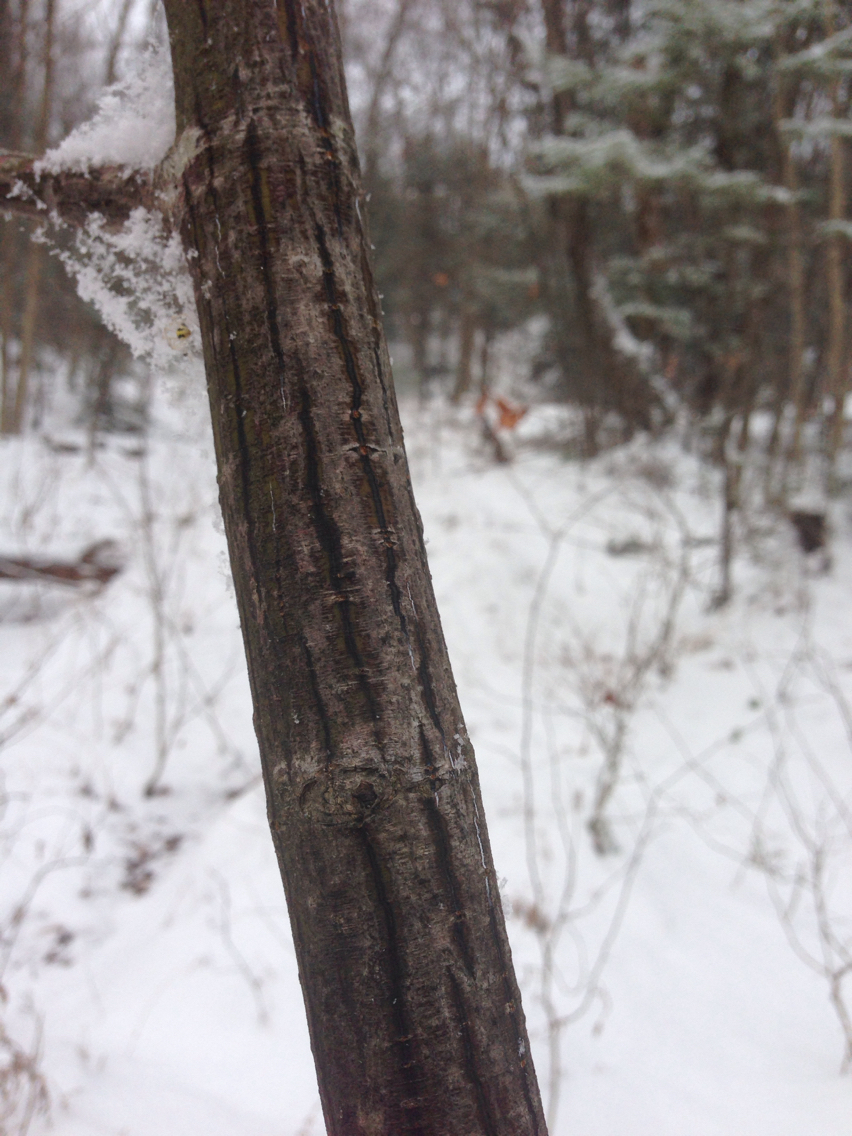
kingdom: Plantae
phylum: Tracheophyta
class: Magnoliopsida
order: Sapindales
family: Sapindaceae
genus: Acer
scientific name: Acer pensylvanicum
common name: Moosewood
